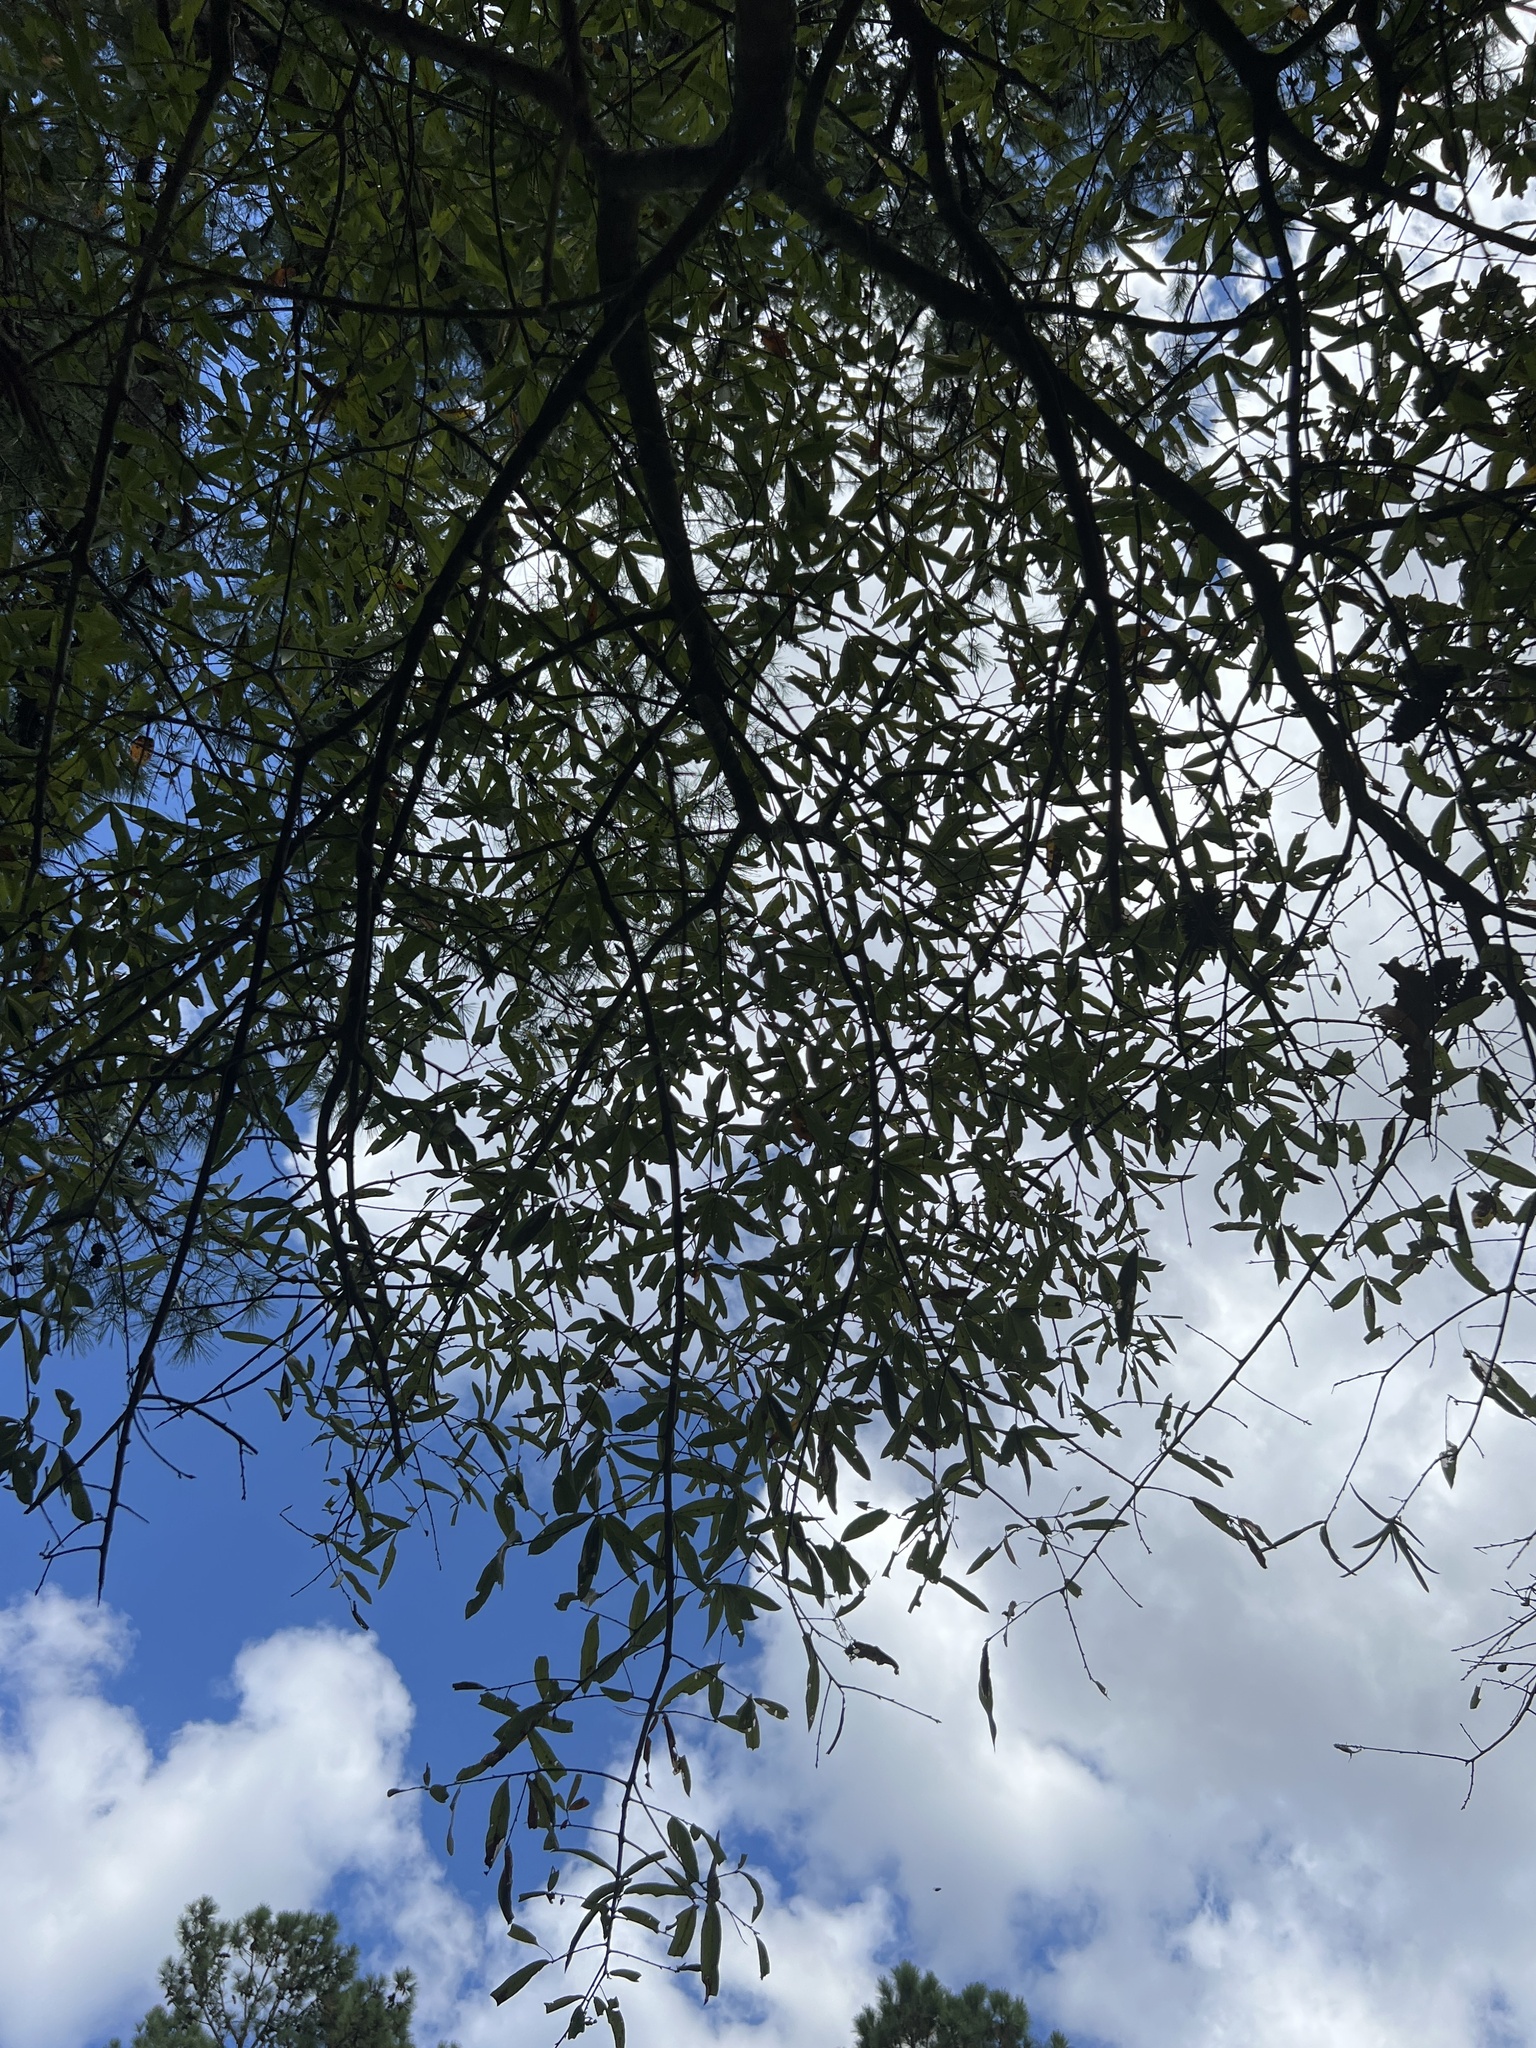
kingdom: Plantae
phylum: Tracheophyta
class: Magnoliopsida
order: Fagales
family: Fagaceae
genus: Quercus
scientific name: Quercus phellos
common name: Willow oak
